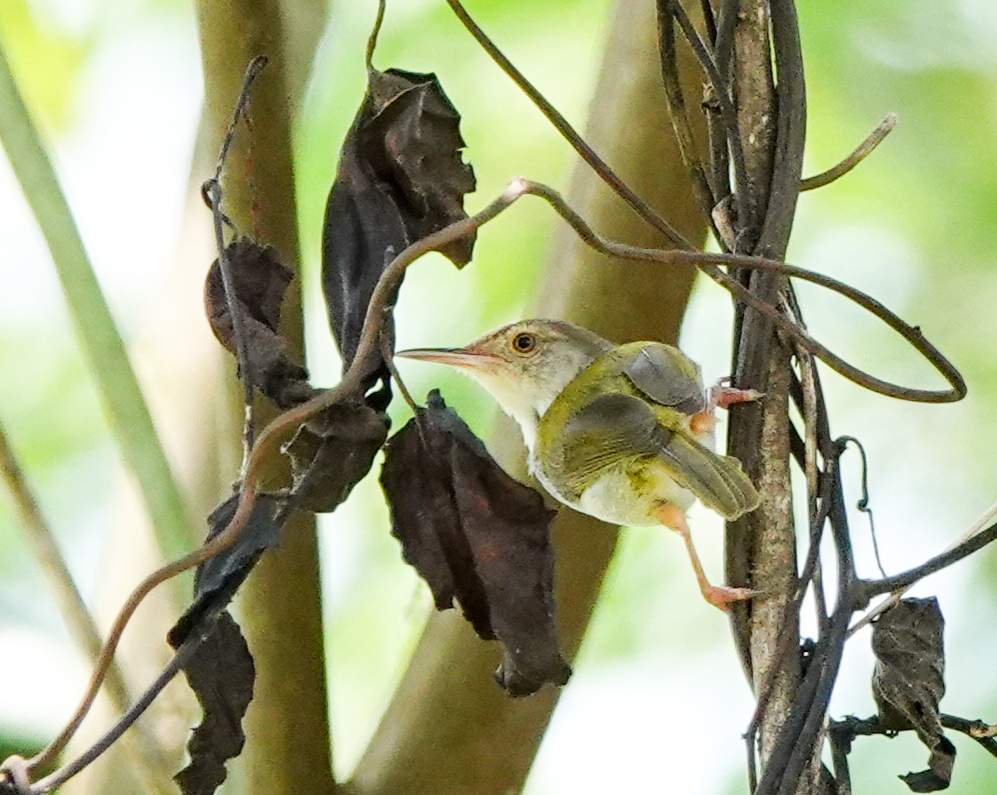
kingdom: Animalia
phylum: Chordata
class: Aves
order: Passeriformes
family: Cisticolidae
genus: Orthotomus
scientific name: Orthotomus sutorius
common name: Common tailorbird
